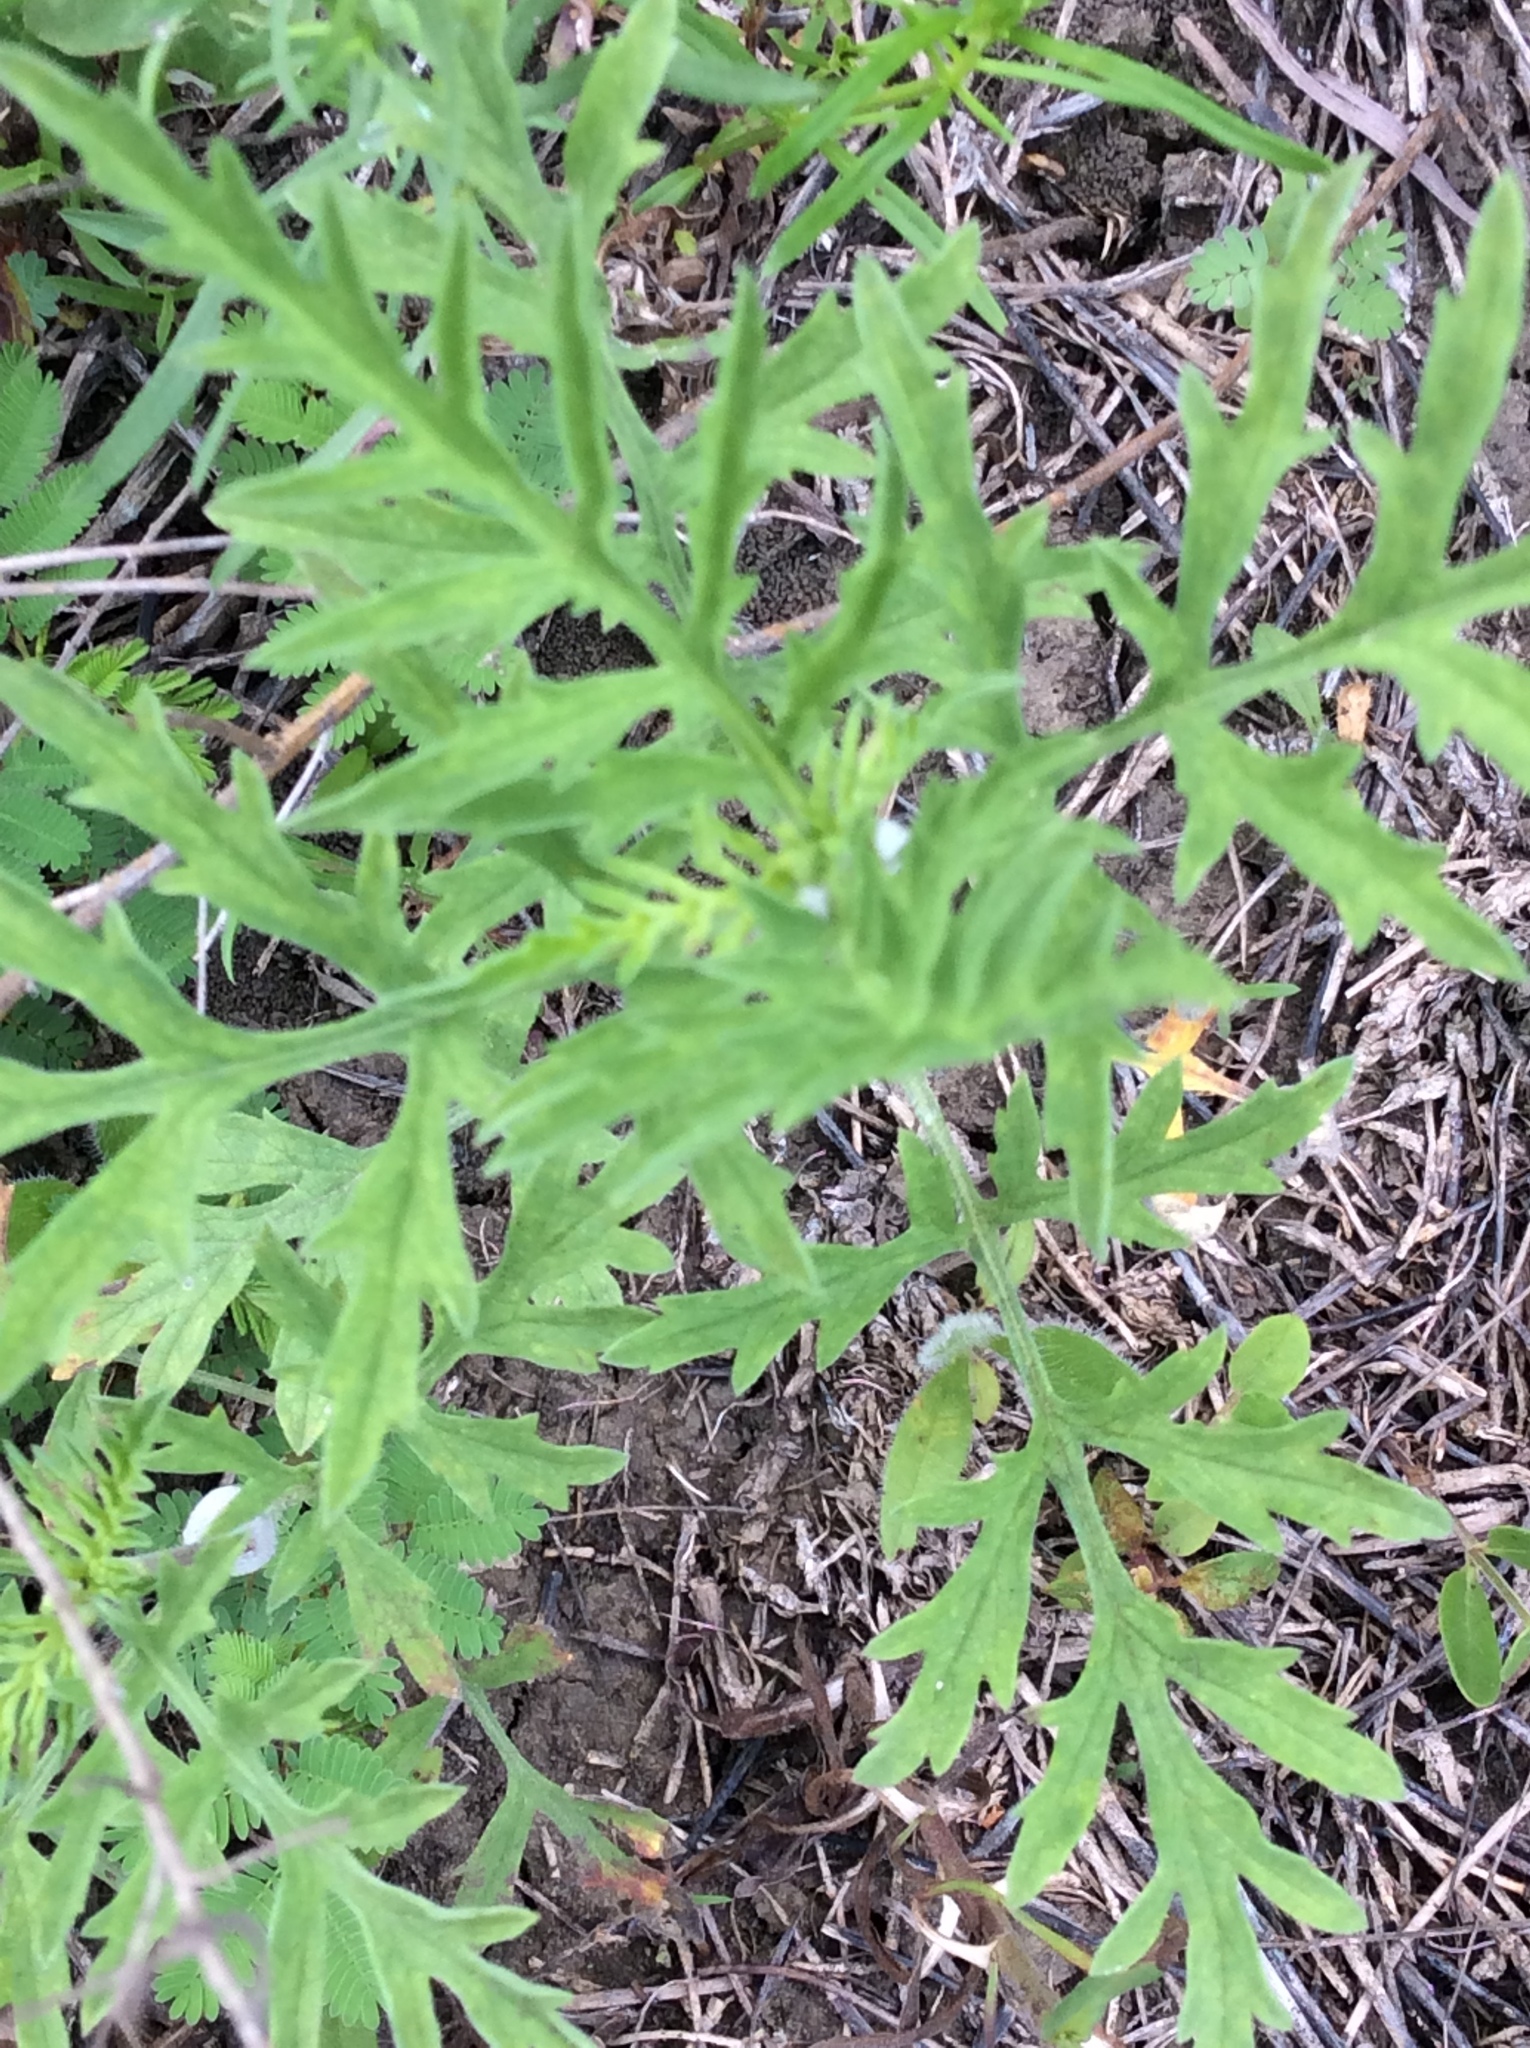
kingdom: Plantae
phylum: Tracheophyta
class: Magnoliopsida
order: Asterales
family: Asteraceae
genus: Ambrosia
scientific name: Ambrosia psilostachya
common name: Perennial ragweed
